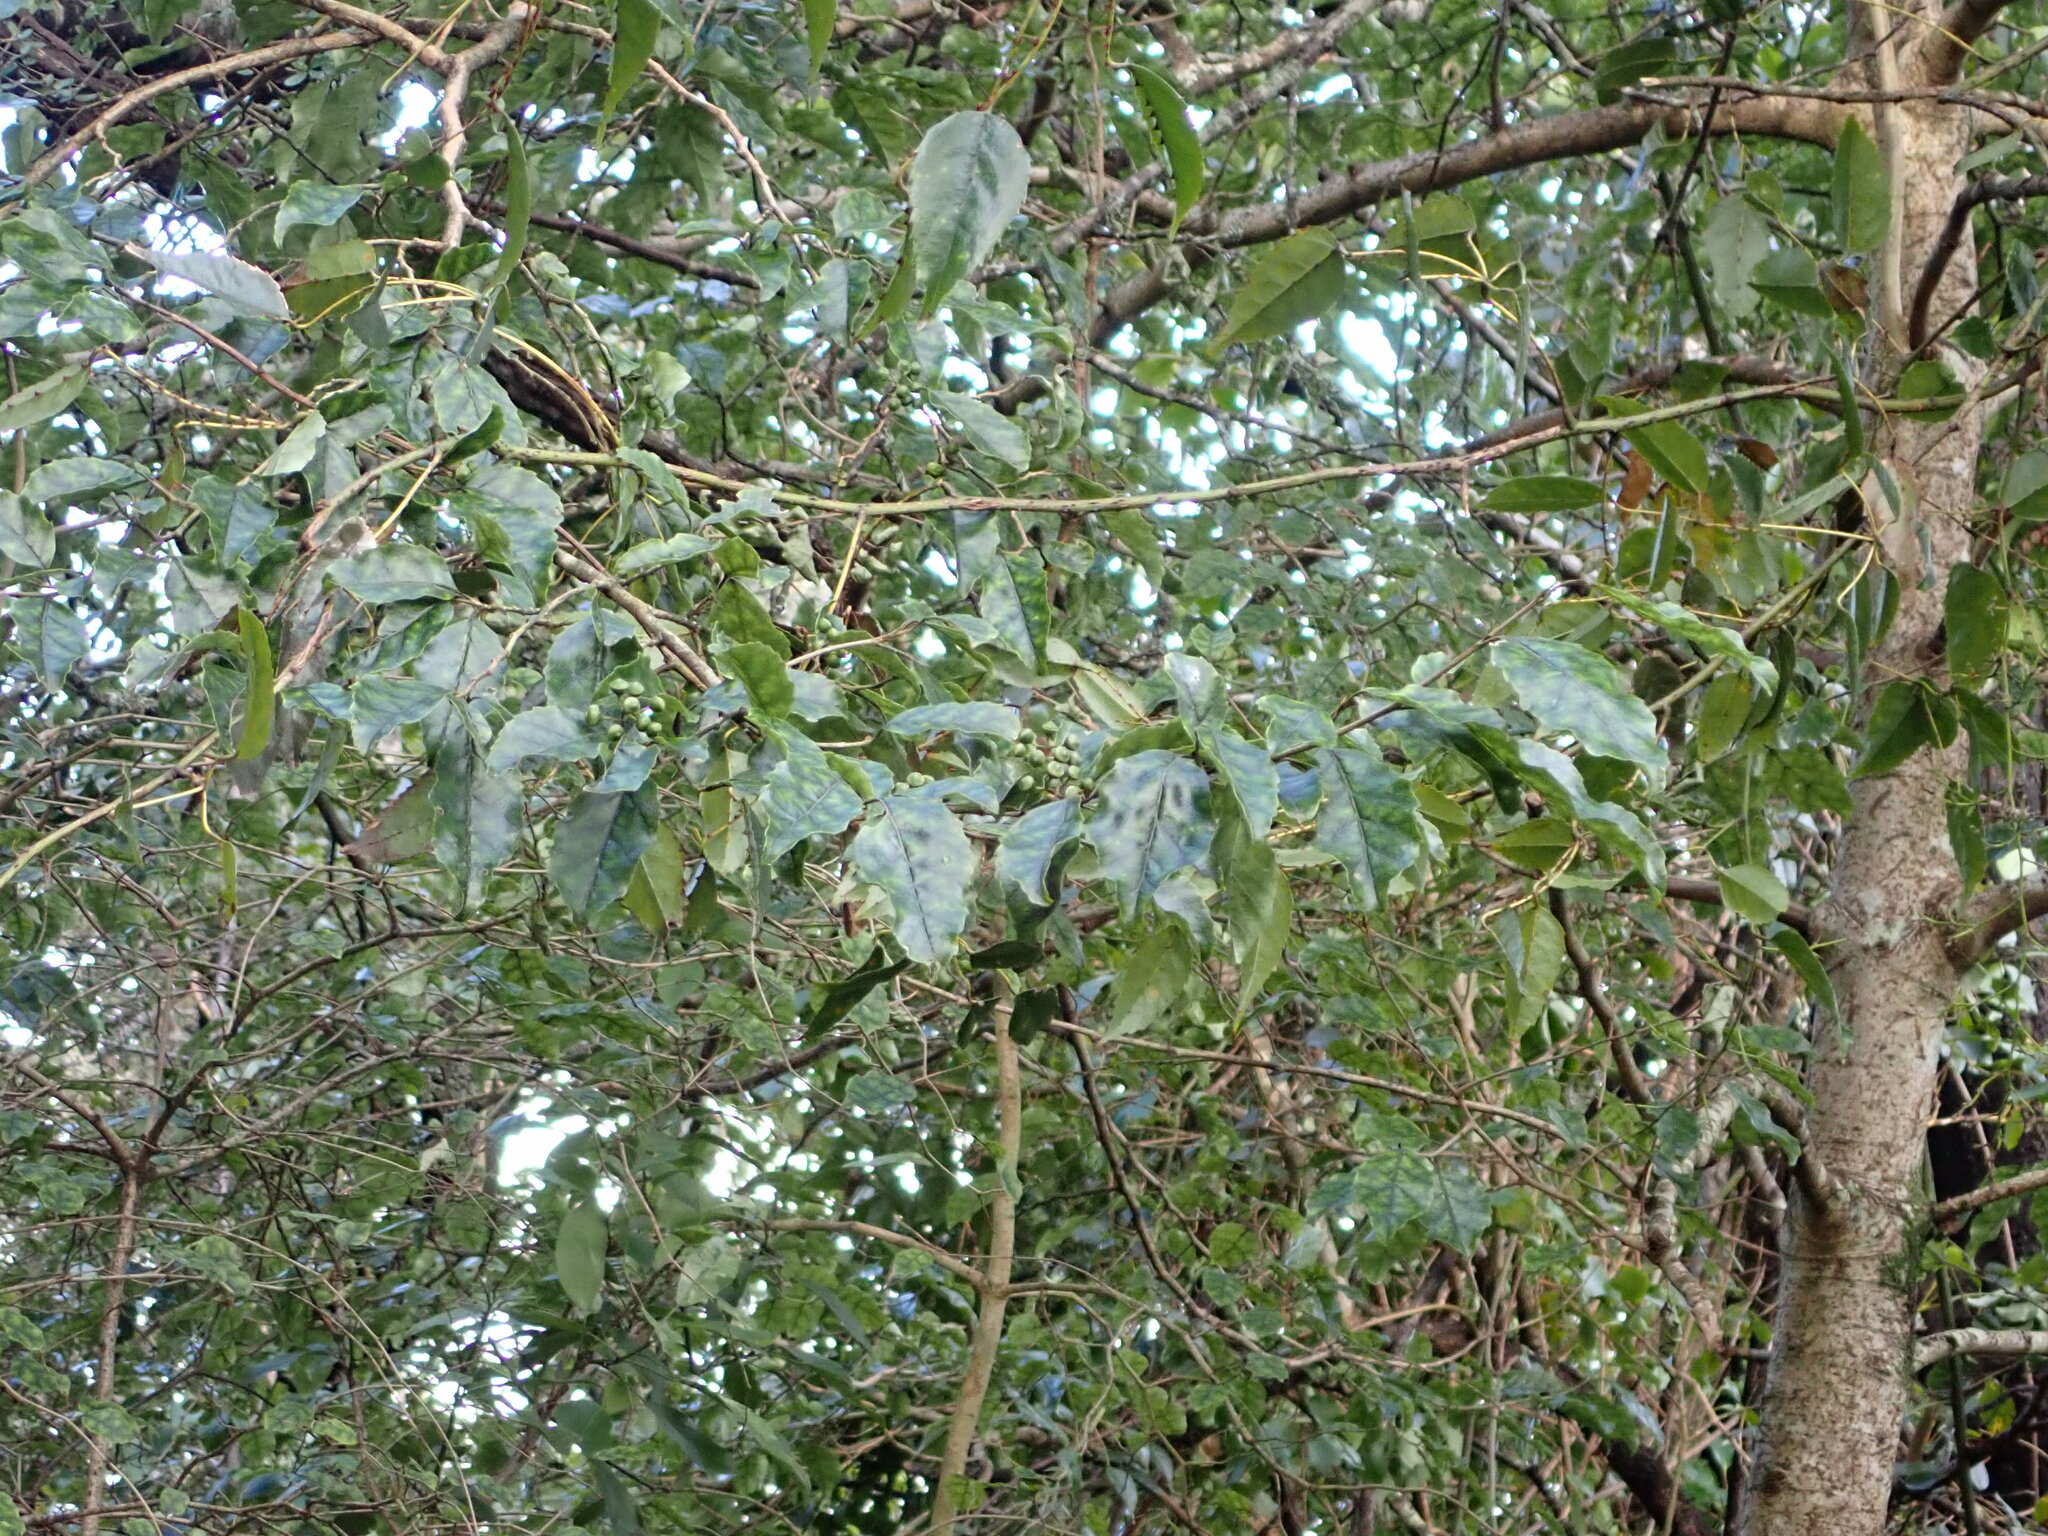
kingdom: Plantae
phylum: Tracheophyta
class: Magnoliopsida
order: Asterales
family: Rousseaceae
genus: Carpodetus
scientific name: Carpodetus serratus
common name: White mapau
